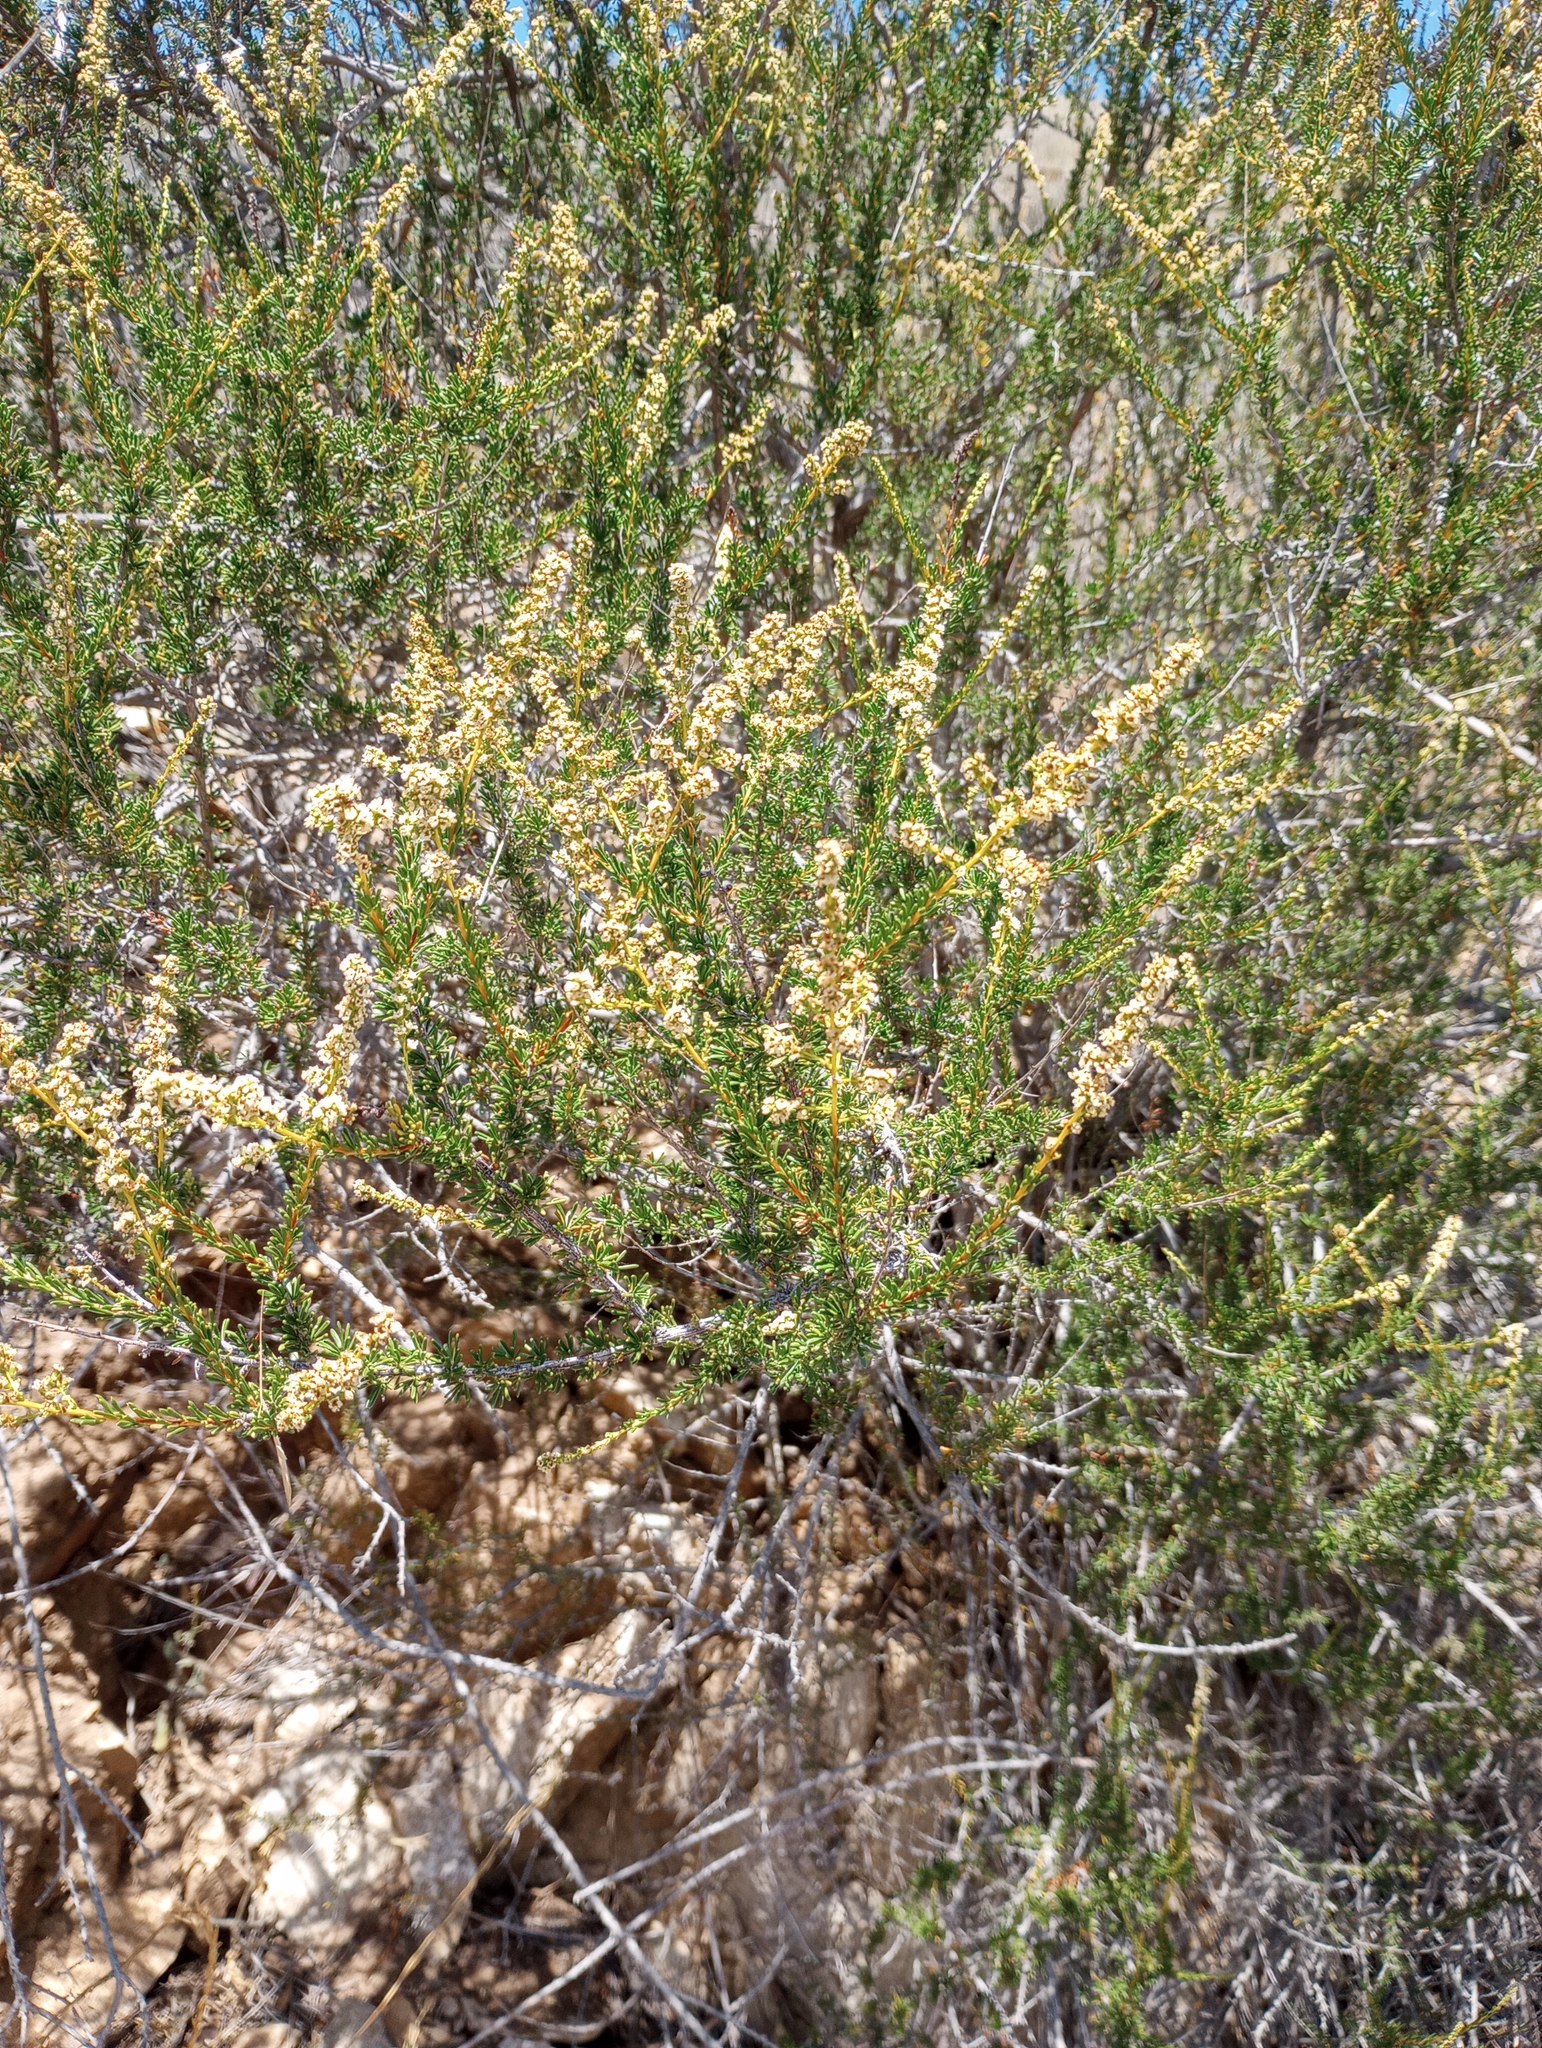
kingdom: Plantae
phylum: Tracheophyta
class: Magnoliopsida
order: Rosales
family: Rosaceae
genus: Adenostoma
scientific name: Adenostoma fasciculatum
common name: Chamise
